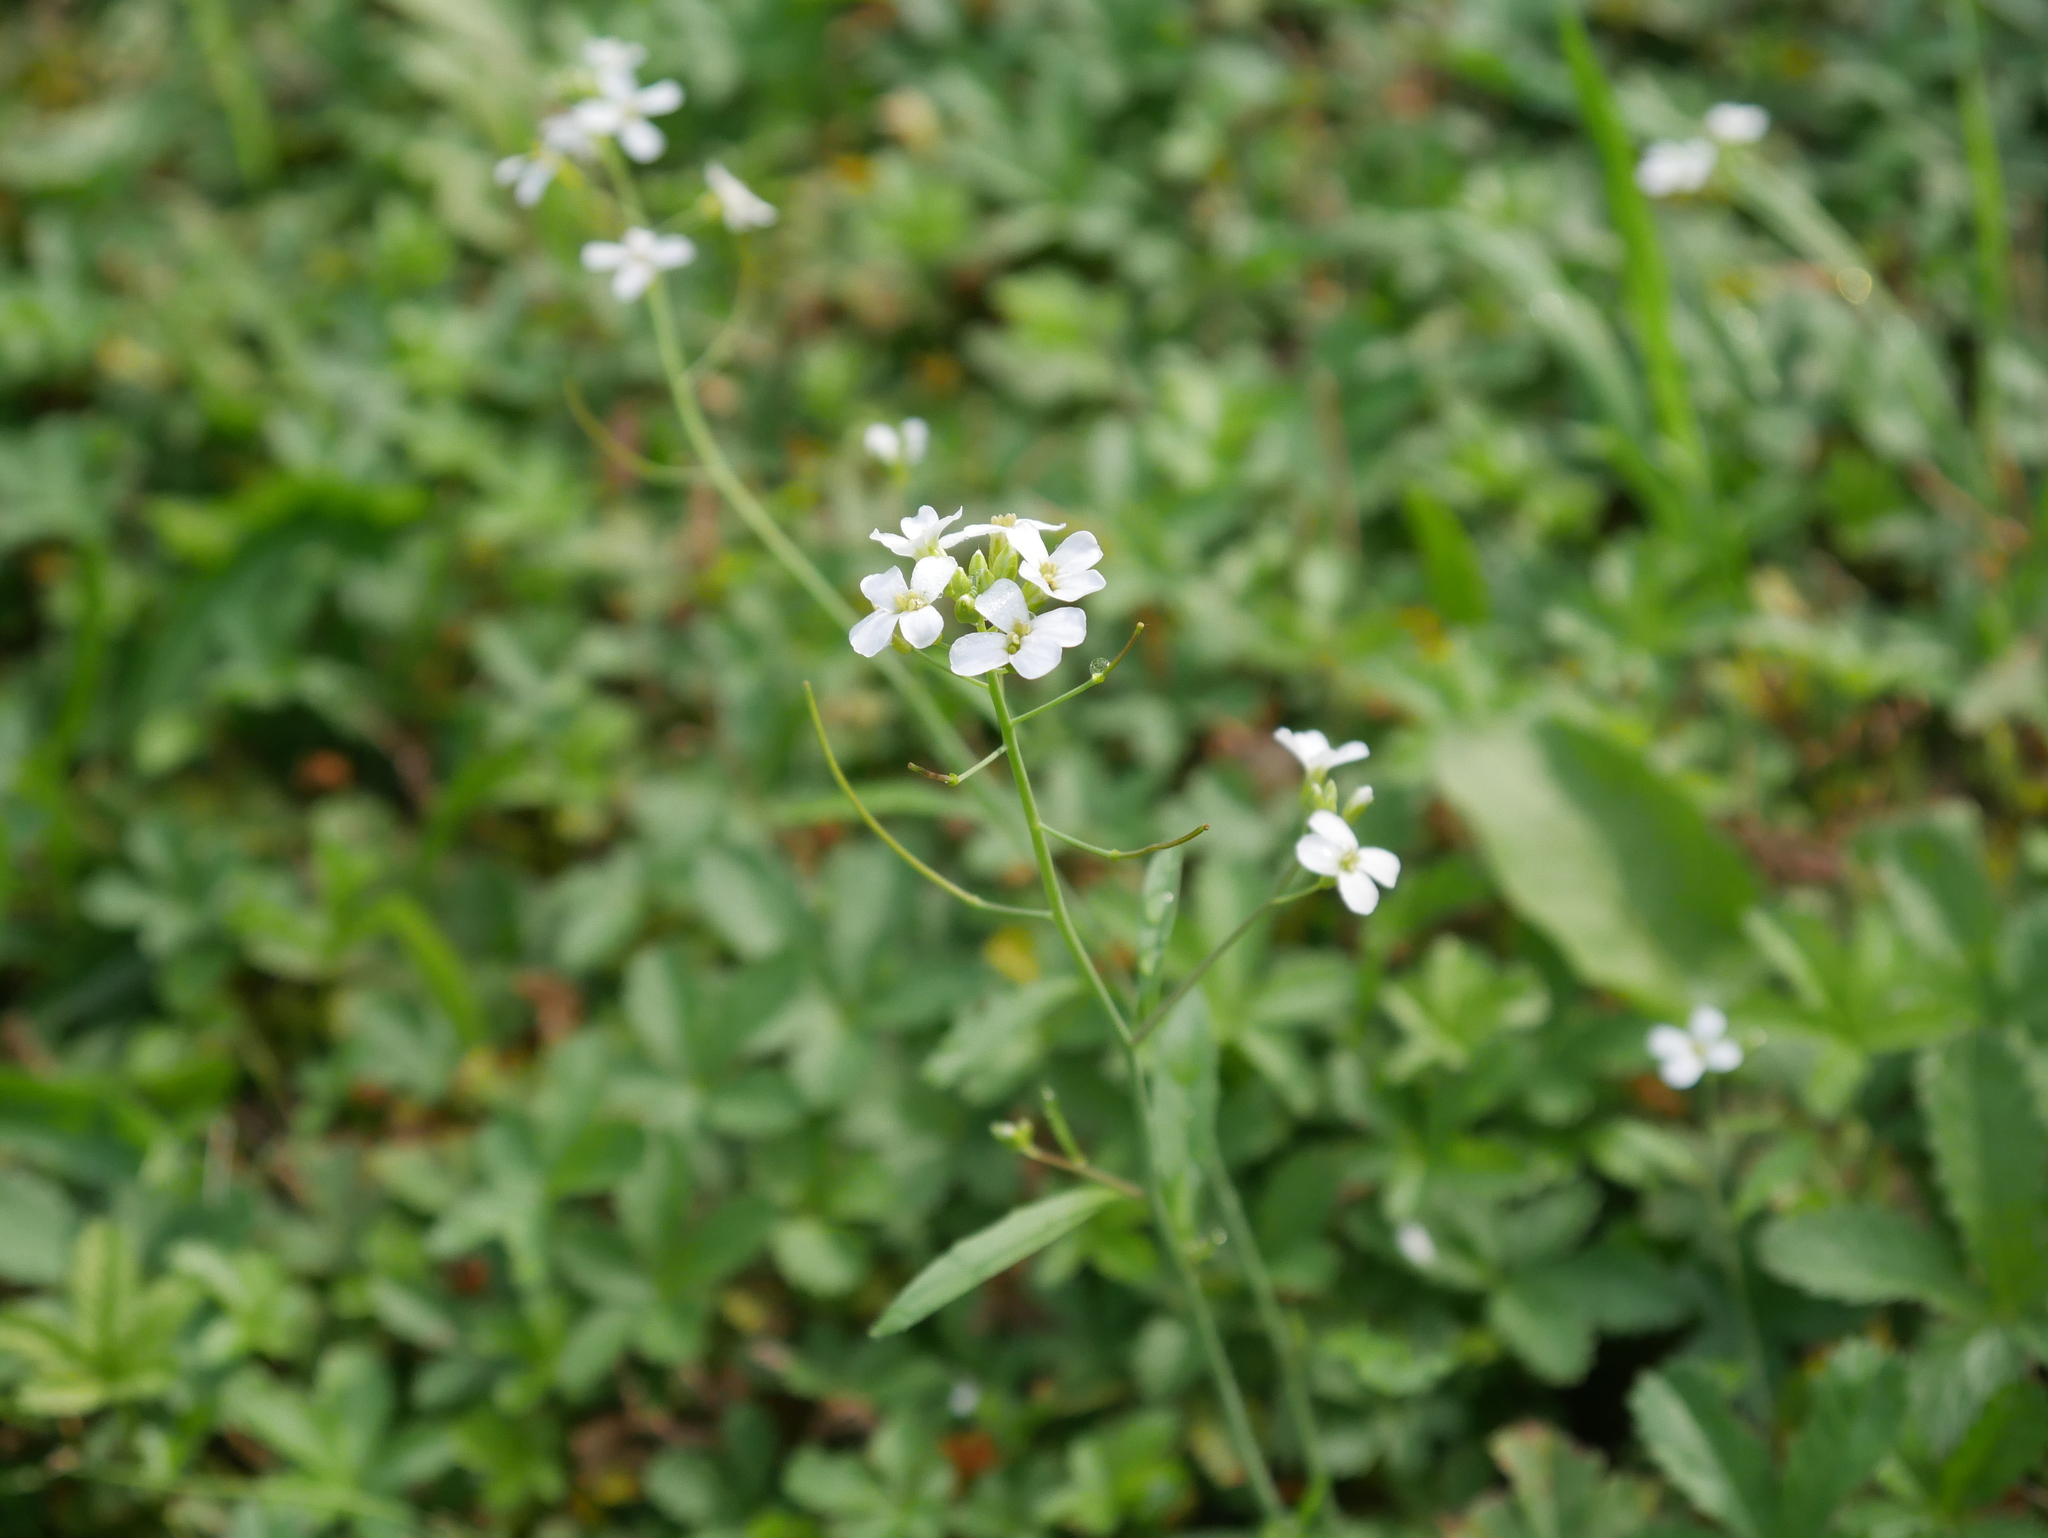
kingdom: Plantae
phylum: Tracheophyta
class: Magnoliopsida
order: Brassicales
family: Brassicaceae
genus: Arabidopsis
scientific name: Arabidopsis thaliana
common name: Thale cress
